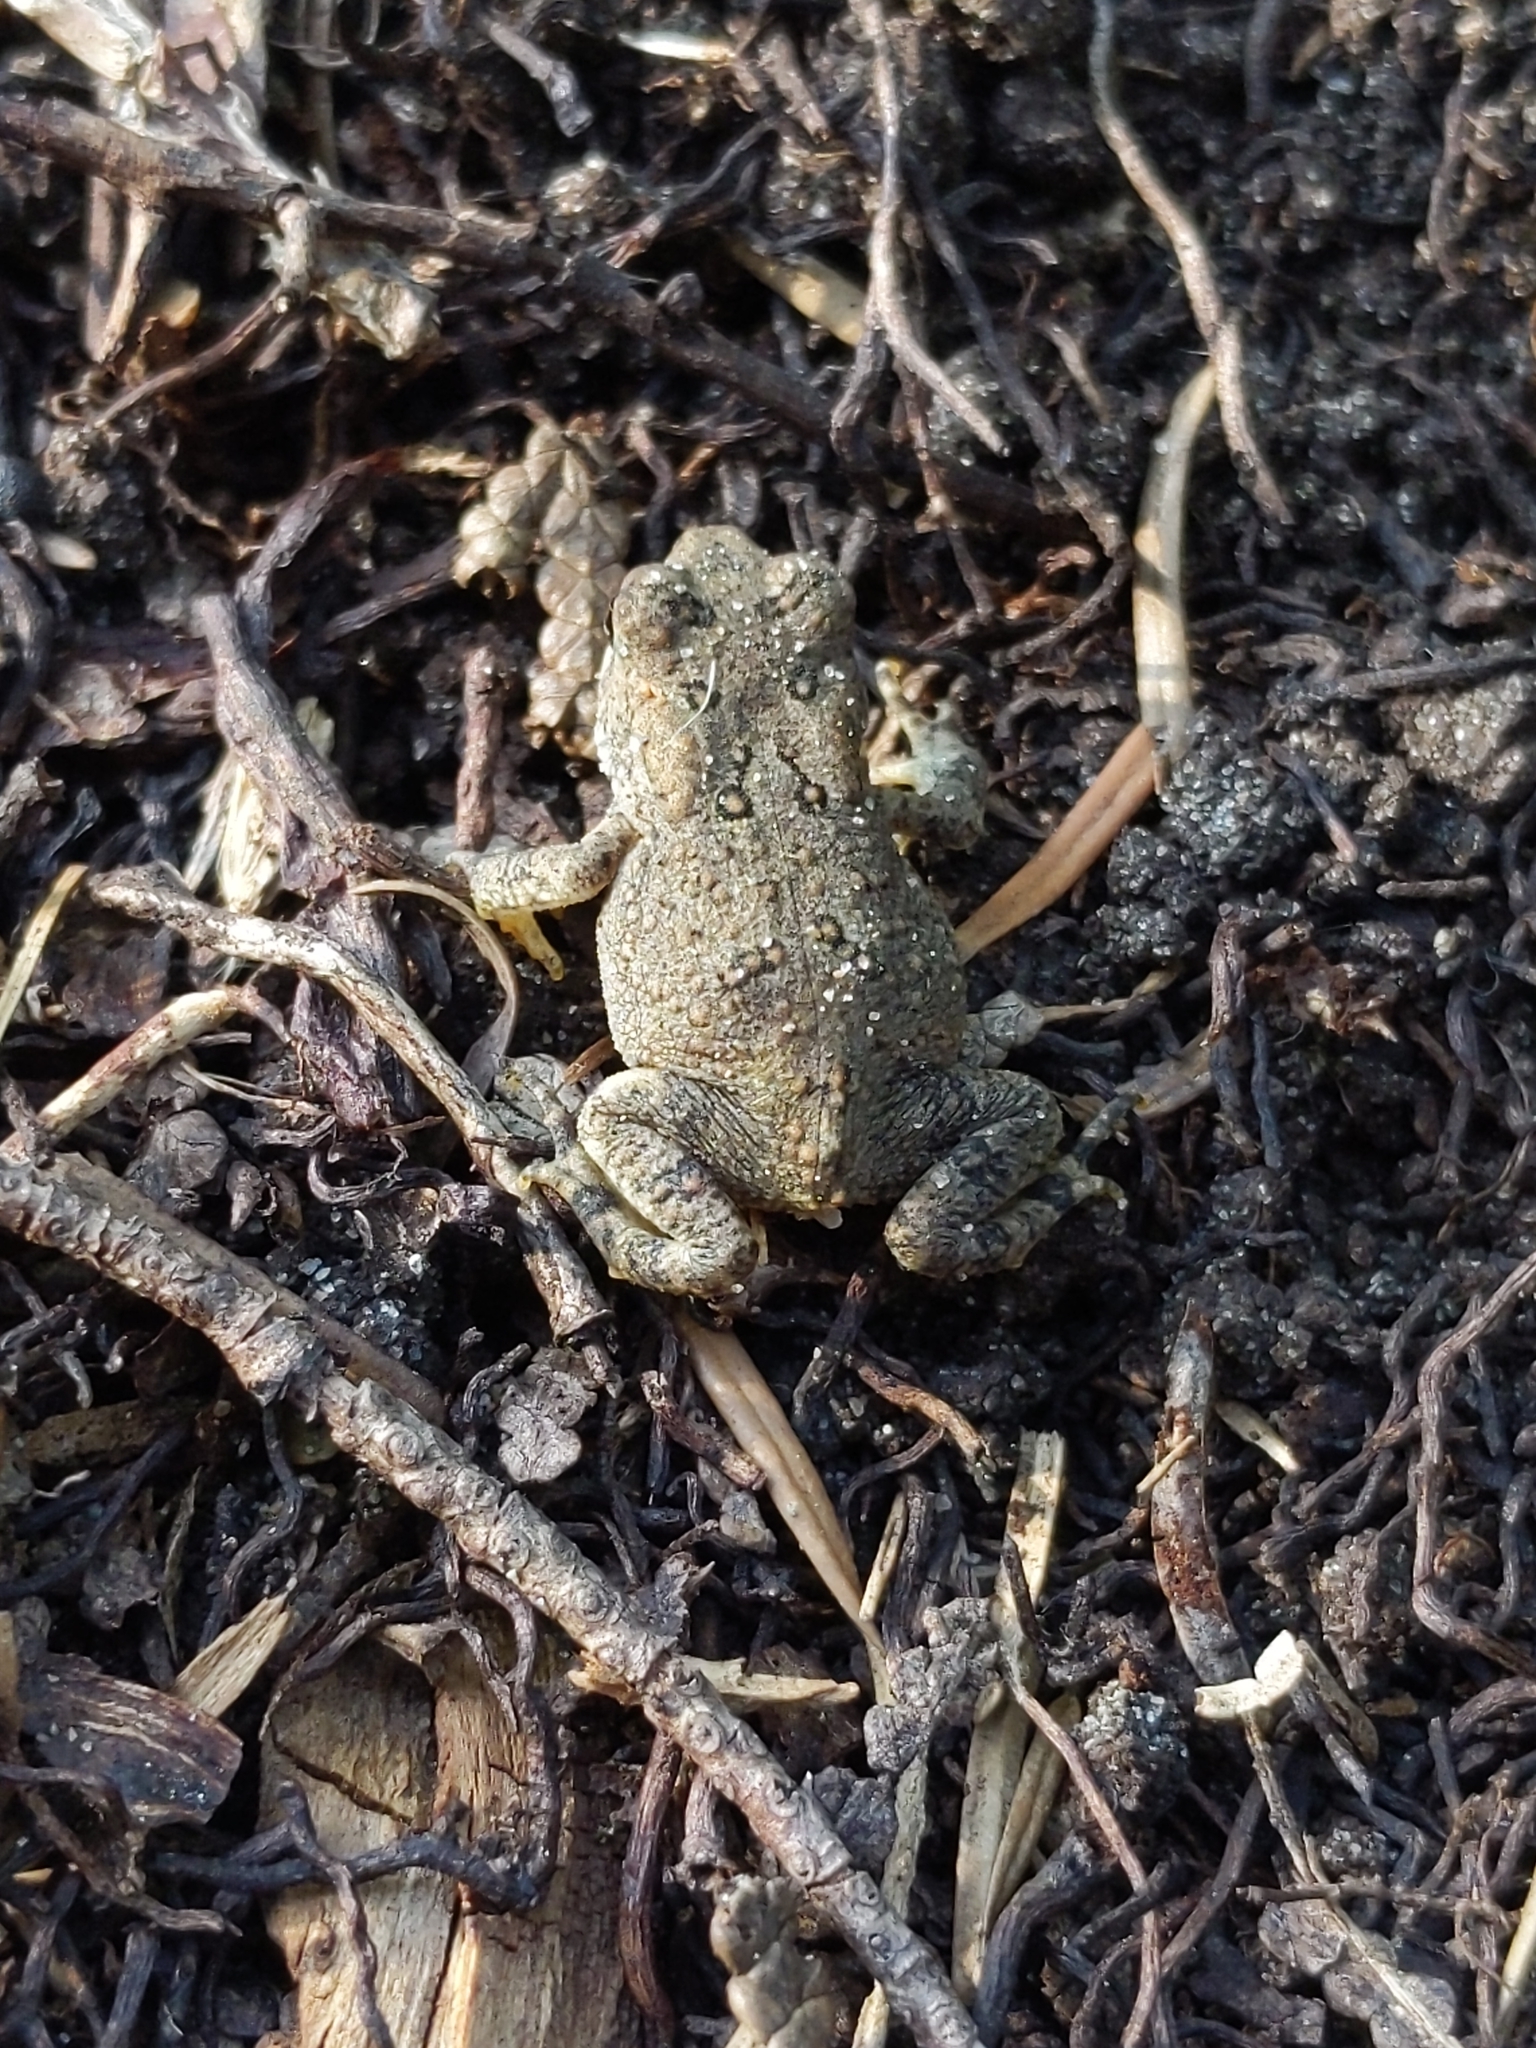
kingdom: Animalia
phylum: Chordata
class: Amphibia
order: Anura
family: Bufonidae
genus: Anaxyrus
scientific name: Anaxyrus americanus
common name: American toad
